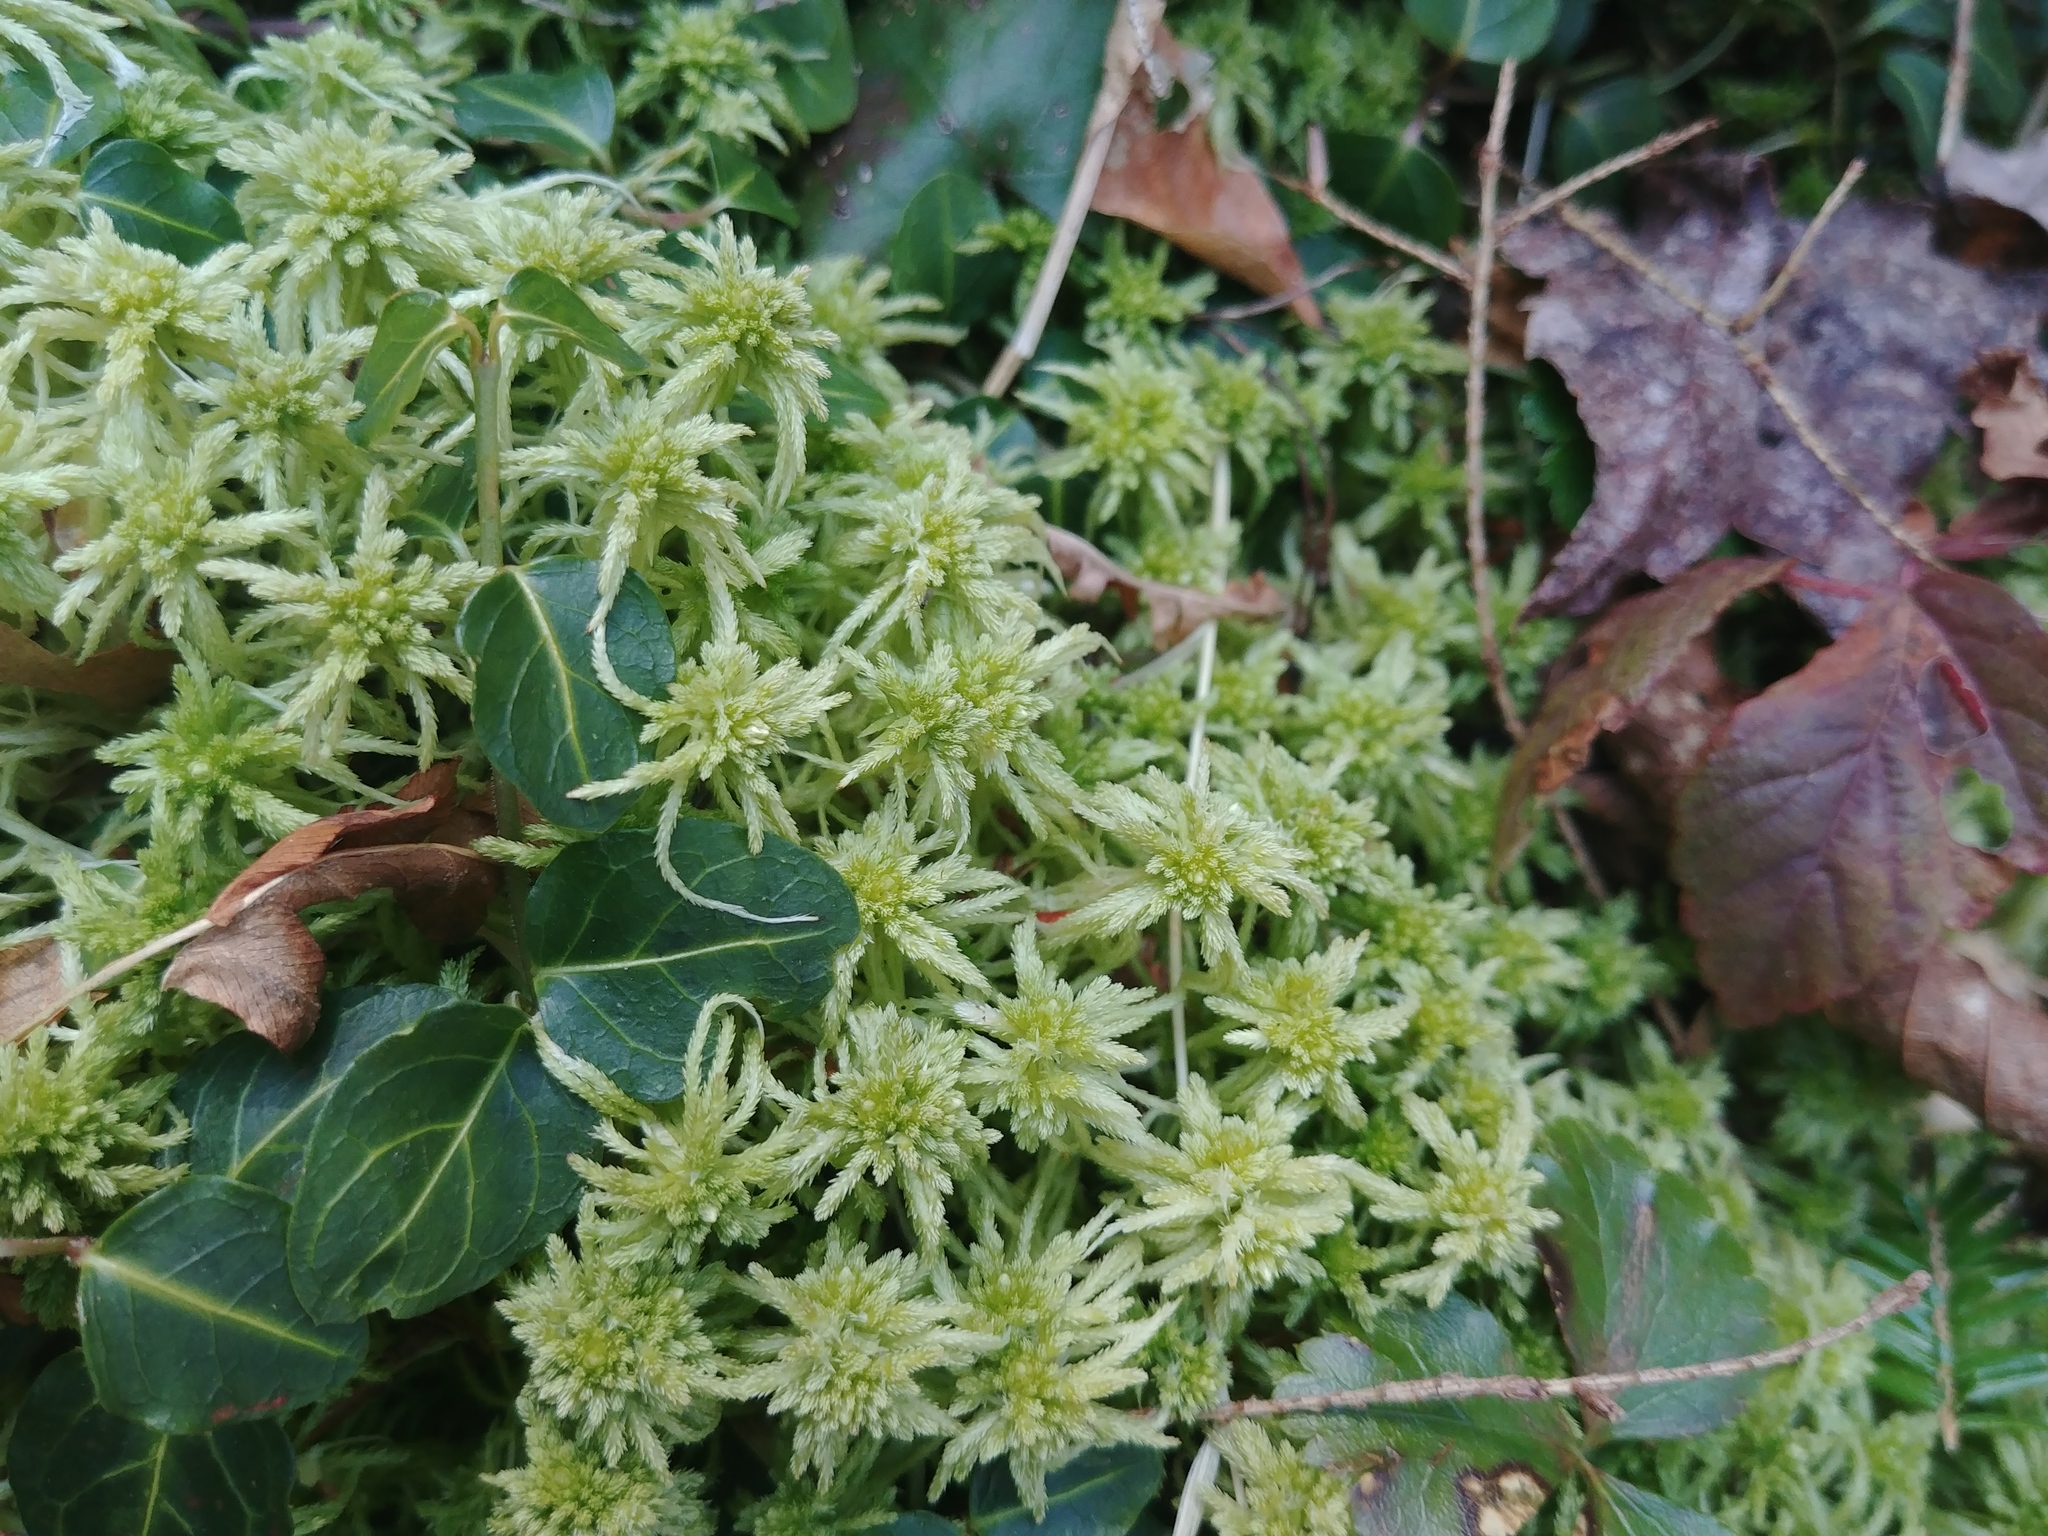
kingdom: Plantae
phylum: Bryophyta
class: Sphagnopsida
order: Sphagnales
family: Sphagnaceae
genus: Sphagnum
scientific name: Sphagnum
